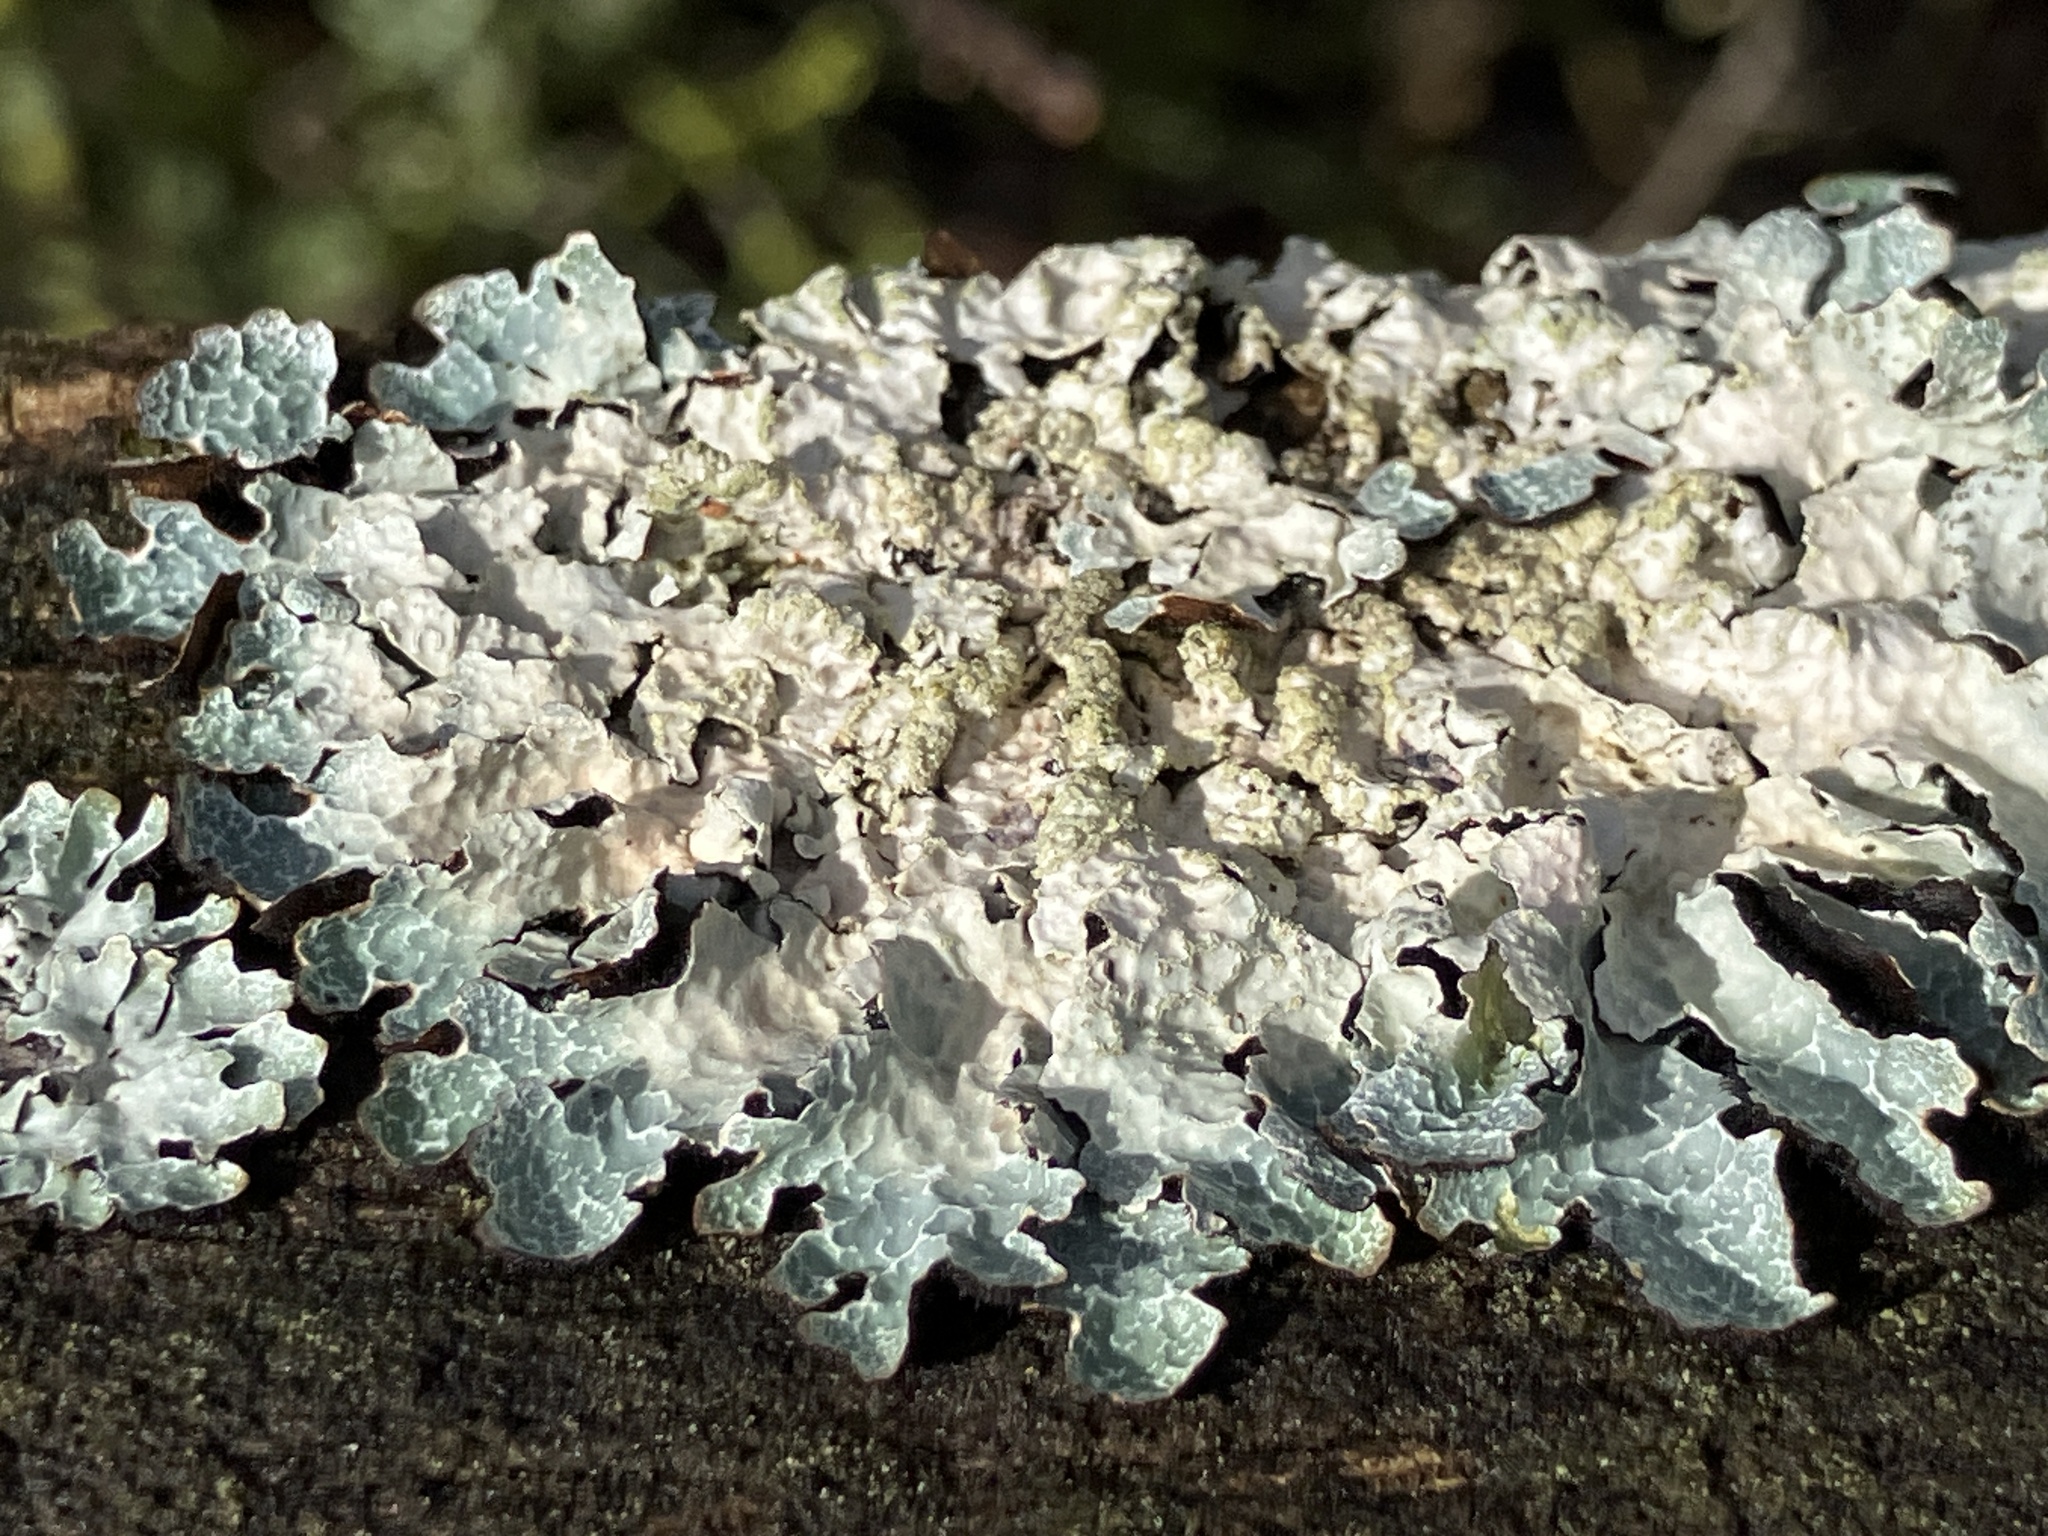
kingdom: Fungi
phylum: Ascomycota
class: Lecanoromycetes
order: Lecanorales
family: Parmeliaceae
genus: Parmelia
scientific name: Parmelia sulcata
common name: Netted shield lichen
